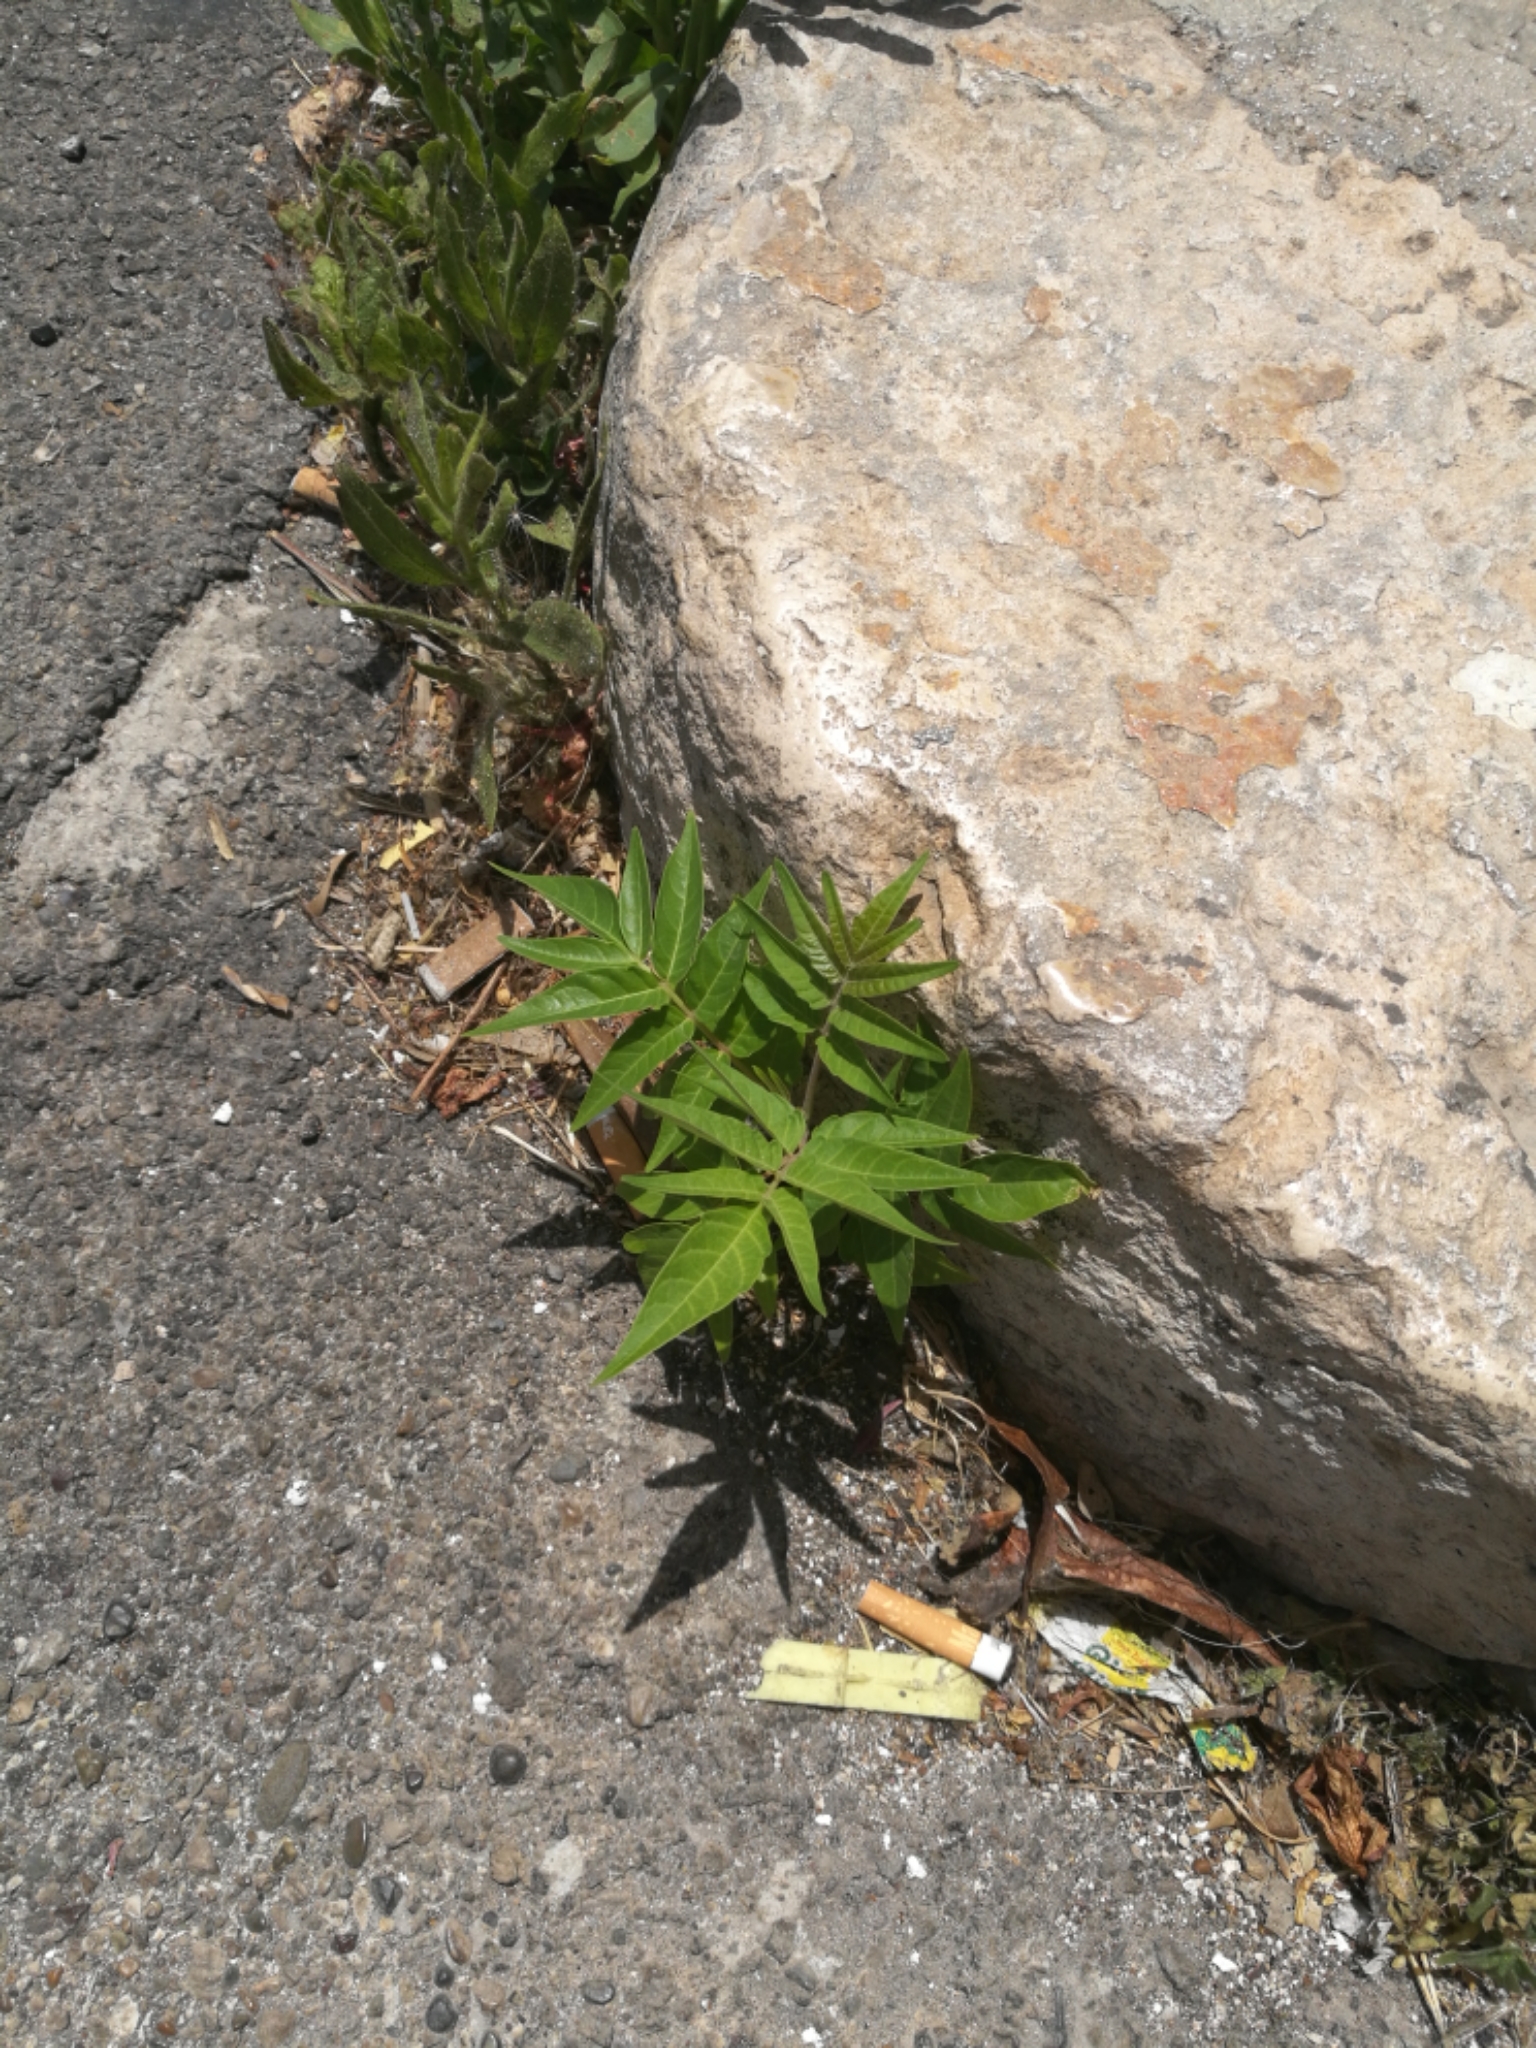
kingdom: Plantae
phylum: Tracheophyta
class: Magnoliopsida
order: Sapindales
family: Simaroubaceae
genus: Ailanthus
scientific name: Ailanthus altissima
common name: Tree-of-heaven
